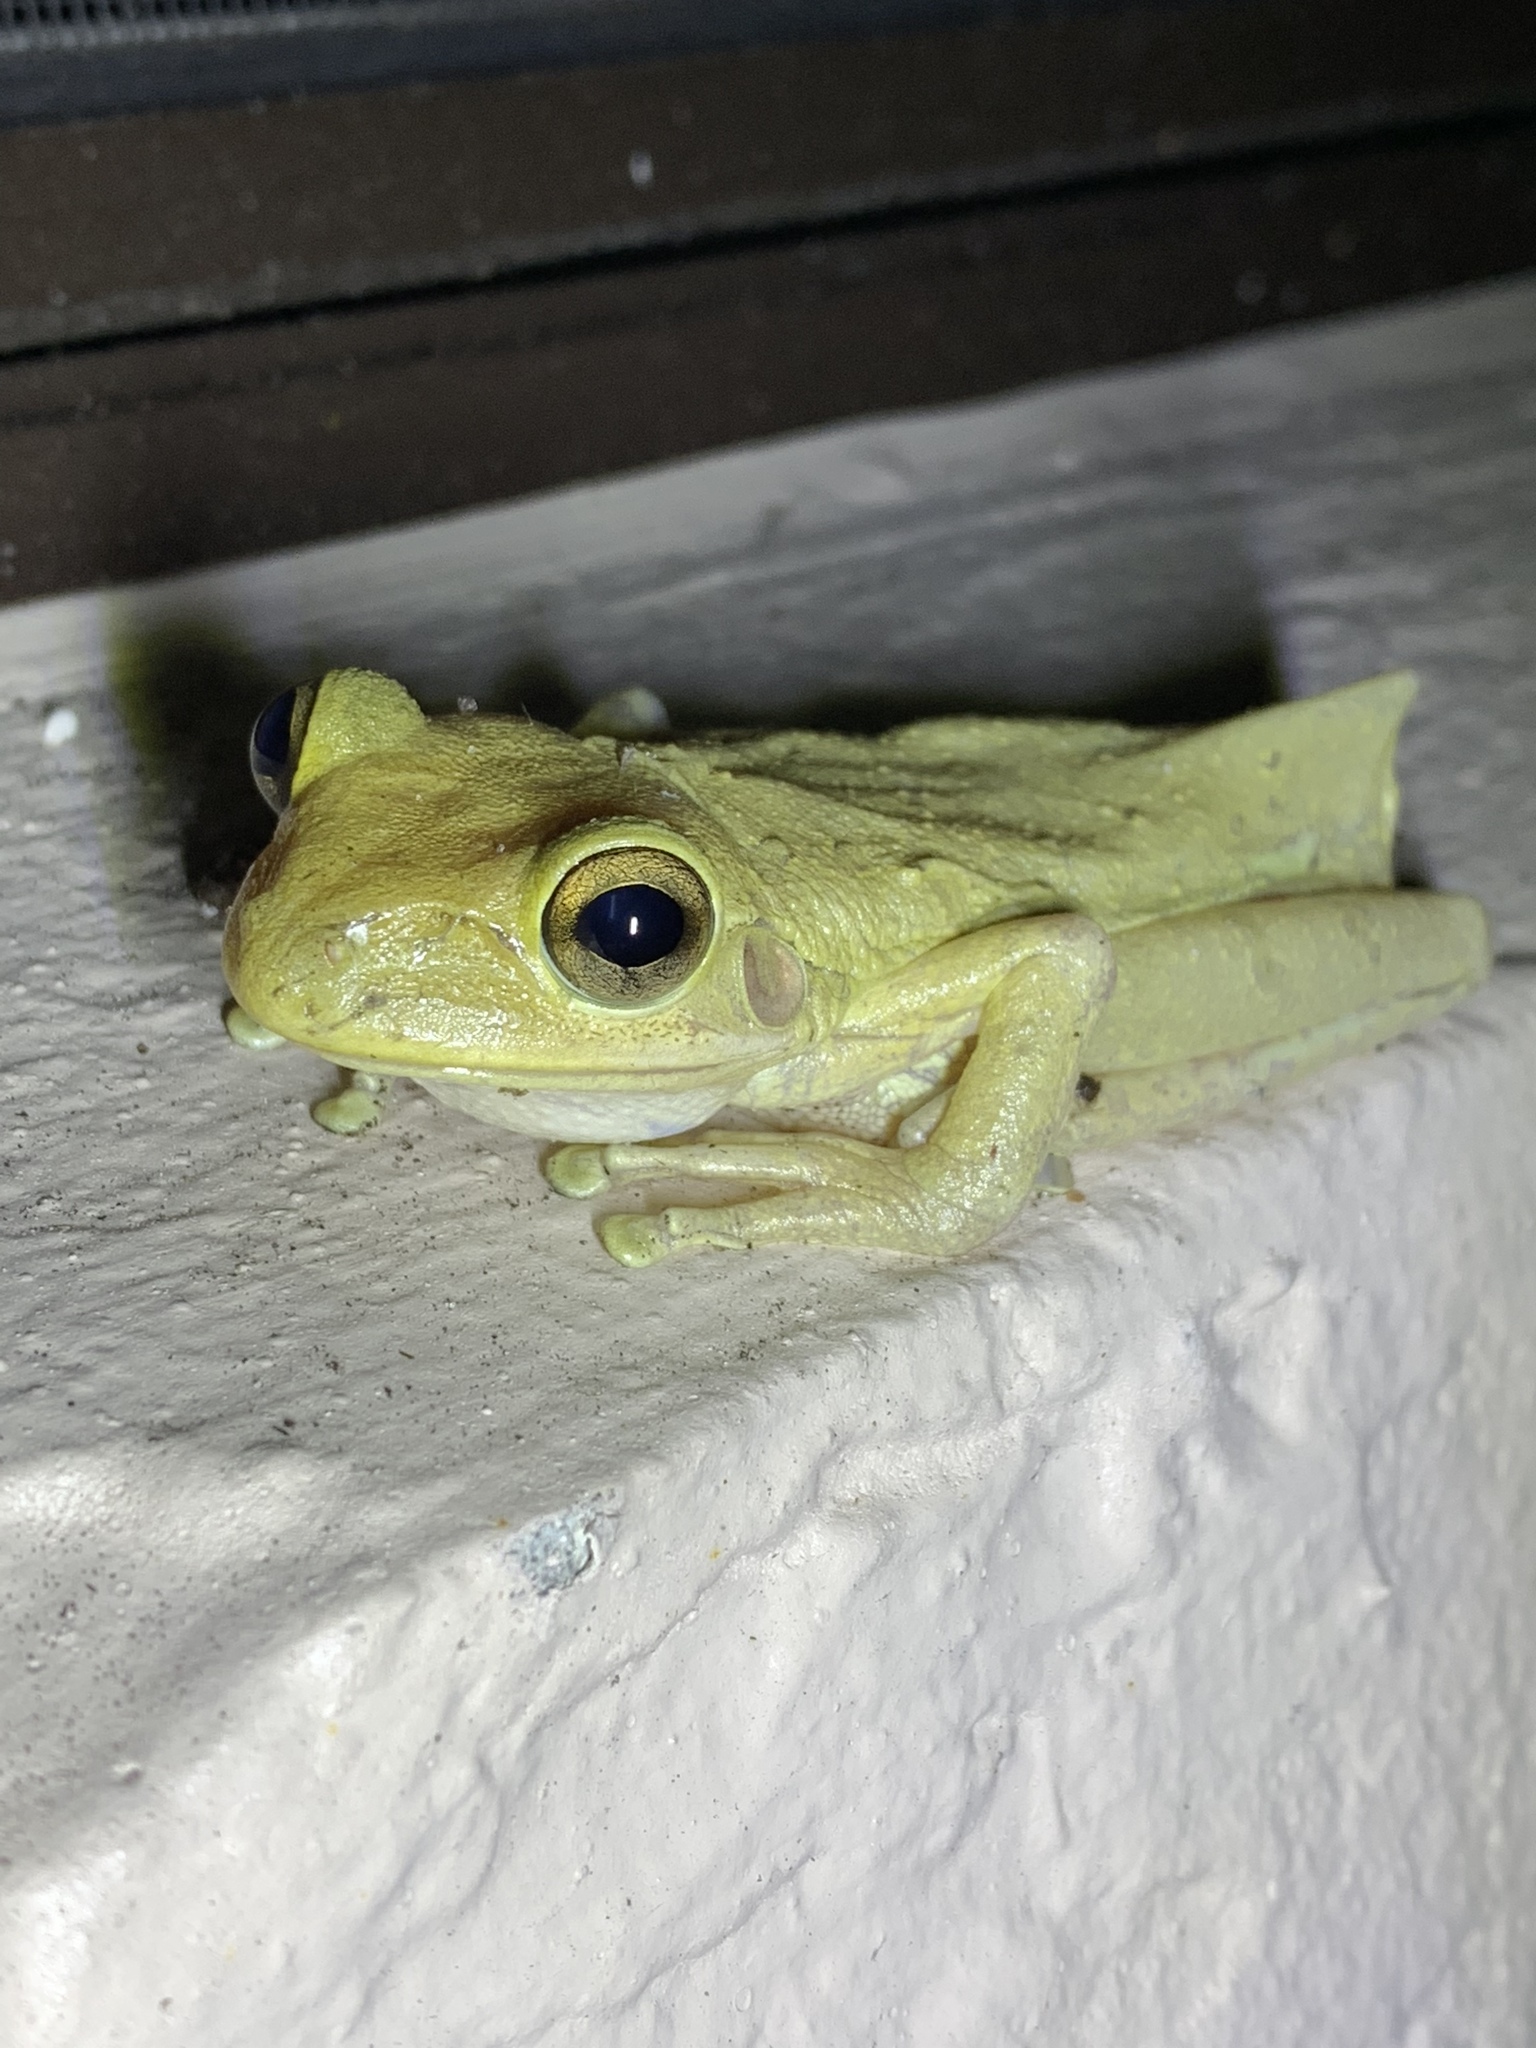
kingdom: Animalia
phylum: Chordata
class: Amphibia
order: Anura
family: Hylidae
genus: Osteopilus
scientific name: Osteopilus septentrionalis
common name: Cuban treefrog
